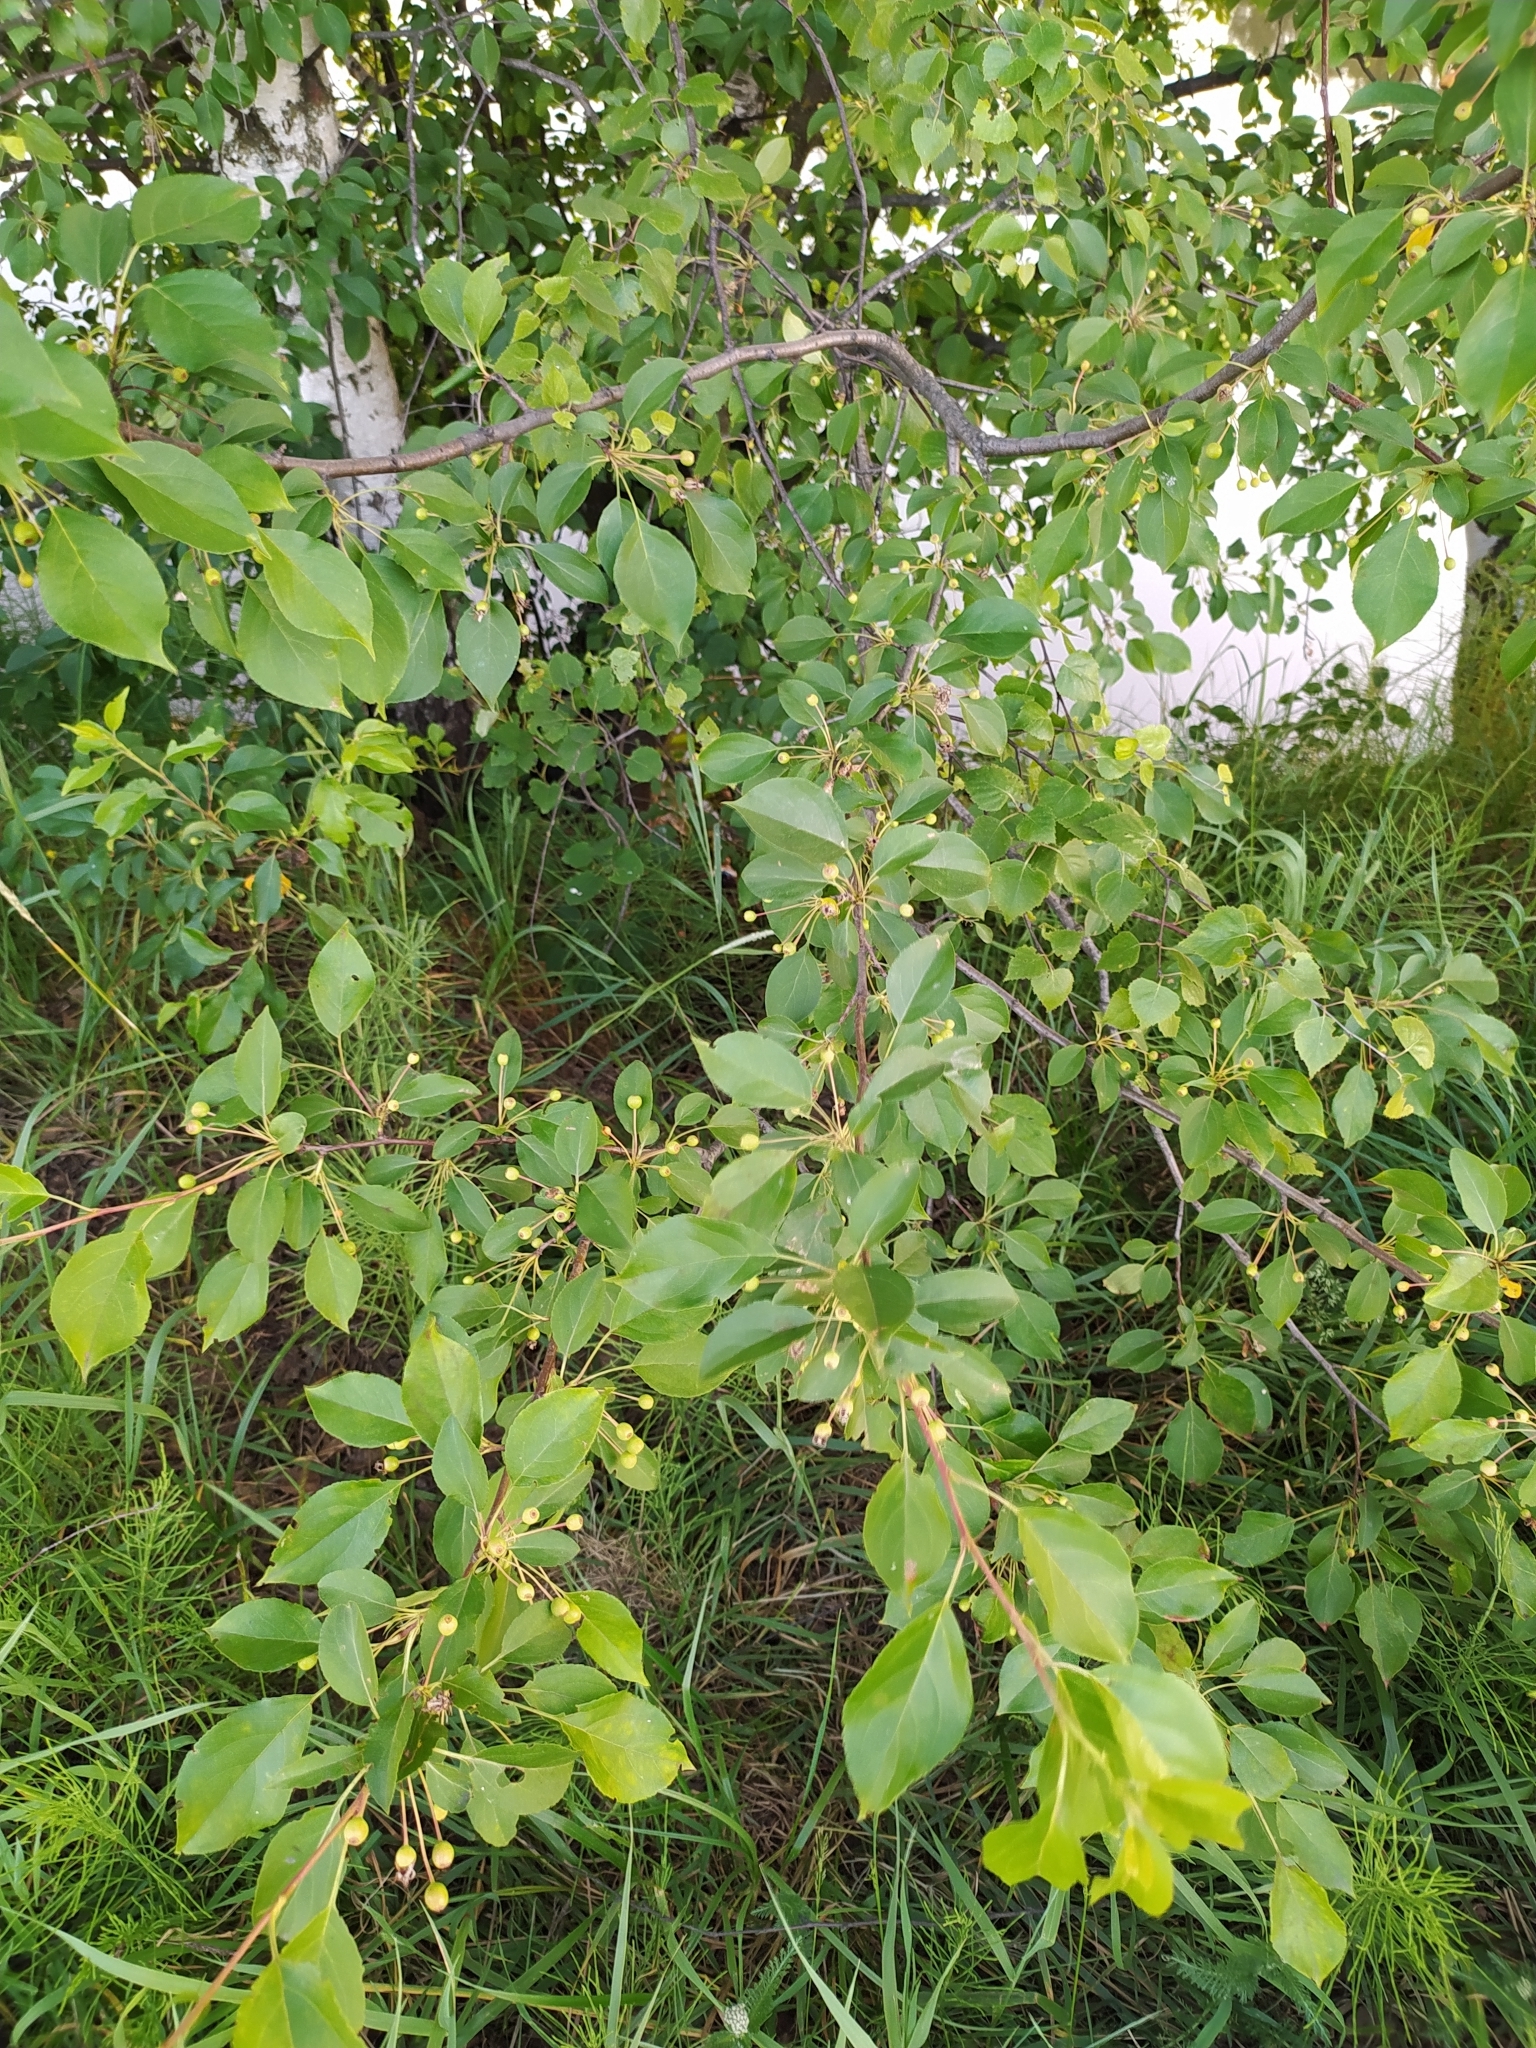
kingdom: Plantae
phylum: Tracheophyta
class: Magnoliopsida
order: Rosales
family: Rhamnaceae
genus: Frangula
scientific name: Frangula alnus
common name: Alder buckthorn
